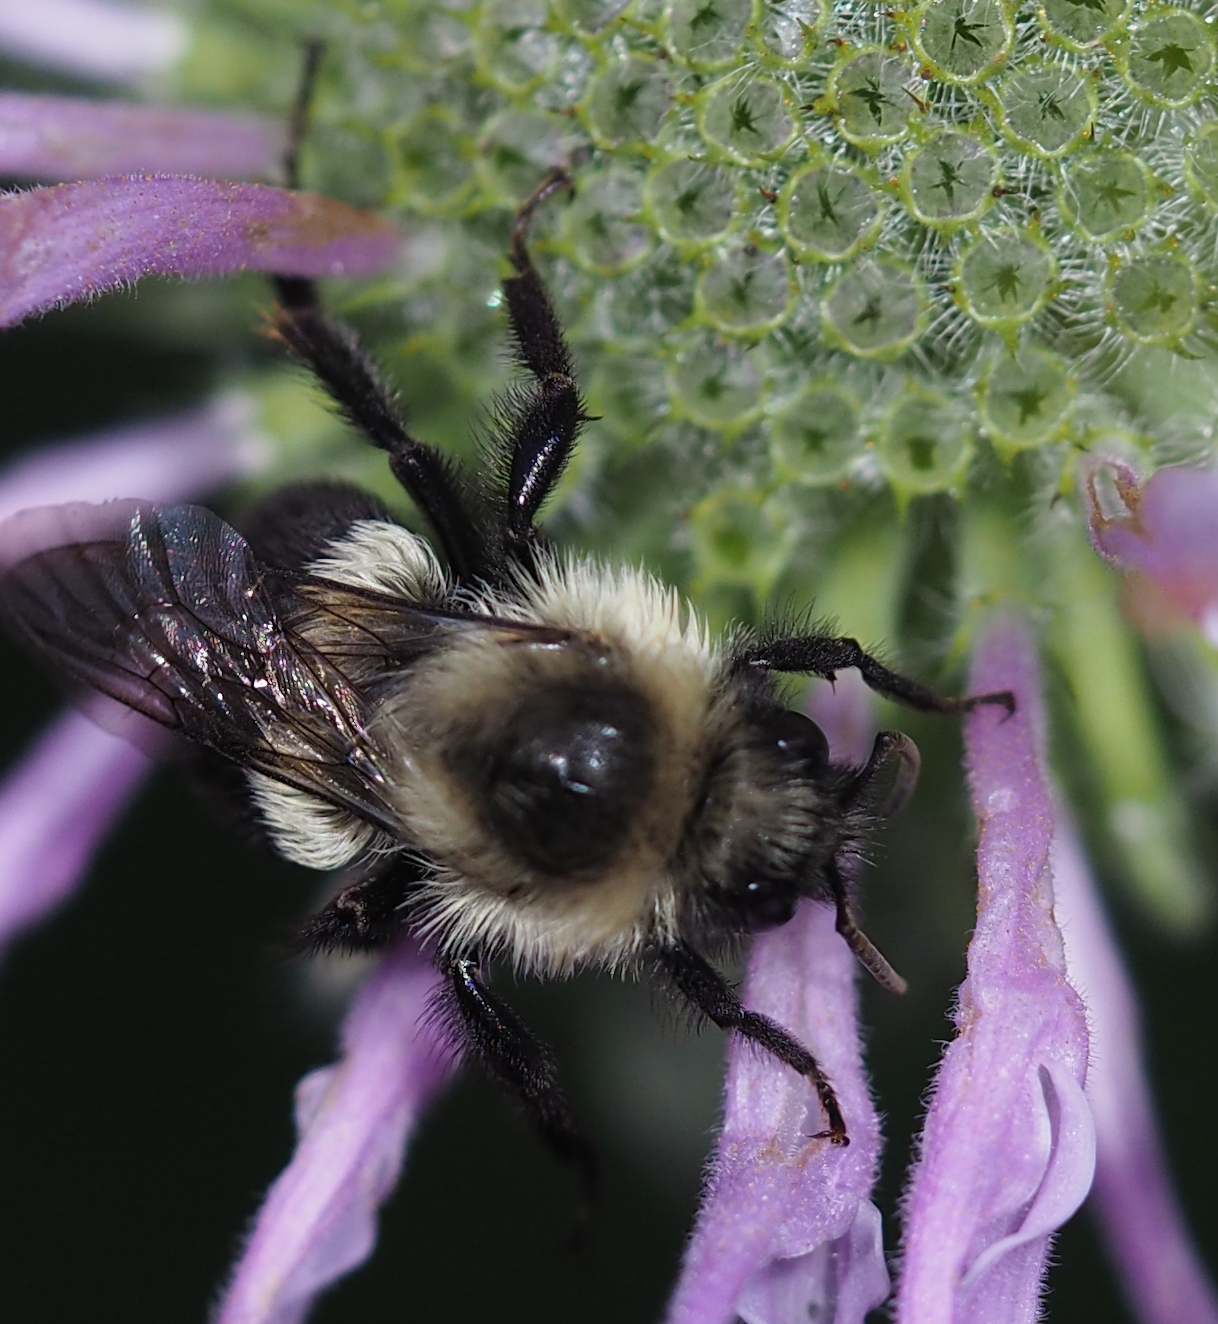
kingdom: Animalia
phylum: Arthropoda
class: Insecta
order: Hymenoptera
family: Apidae
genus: Bombus
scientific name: Bombus impatiens
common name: Common eastern bumble bee
